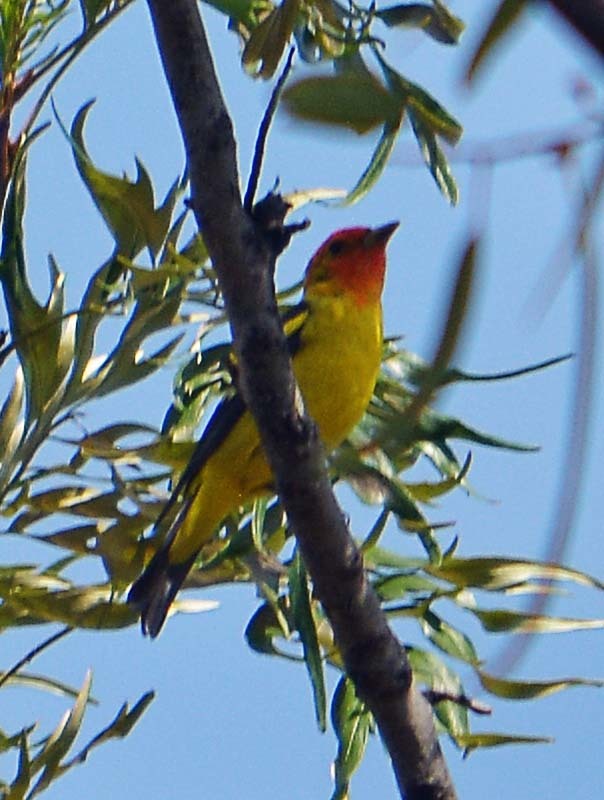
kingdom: Animalia
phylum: Chordata
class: Aves
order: Passeriformes
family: Cardinalidae
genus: Piranga
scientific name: Piranga ludoviciana
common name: Western tanager
